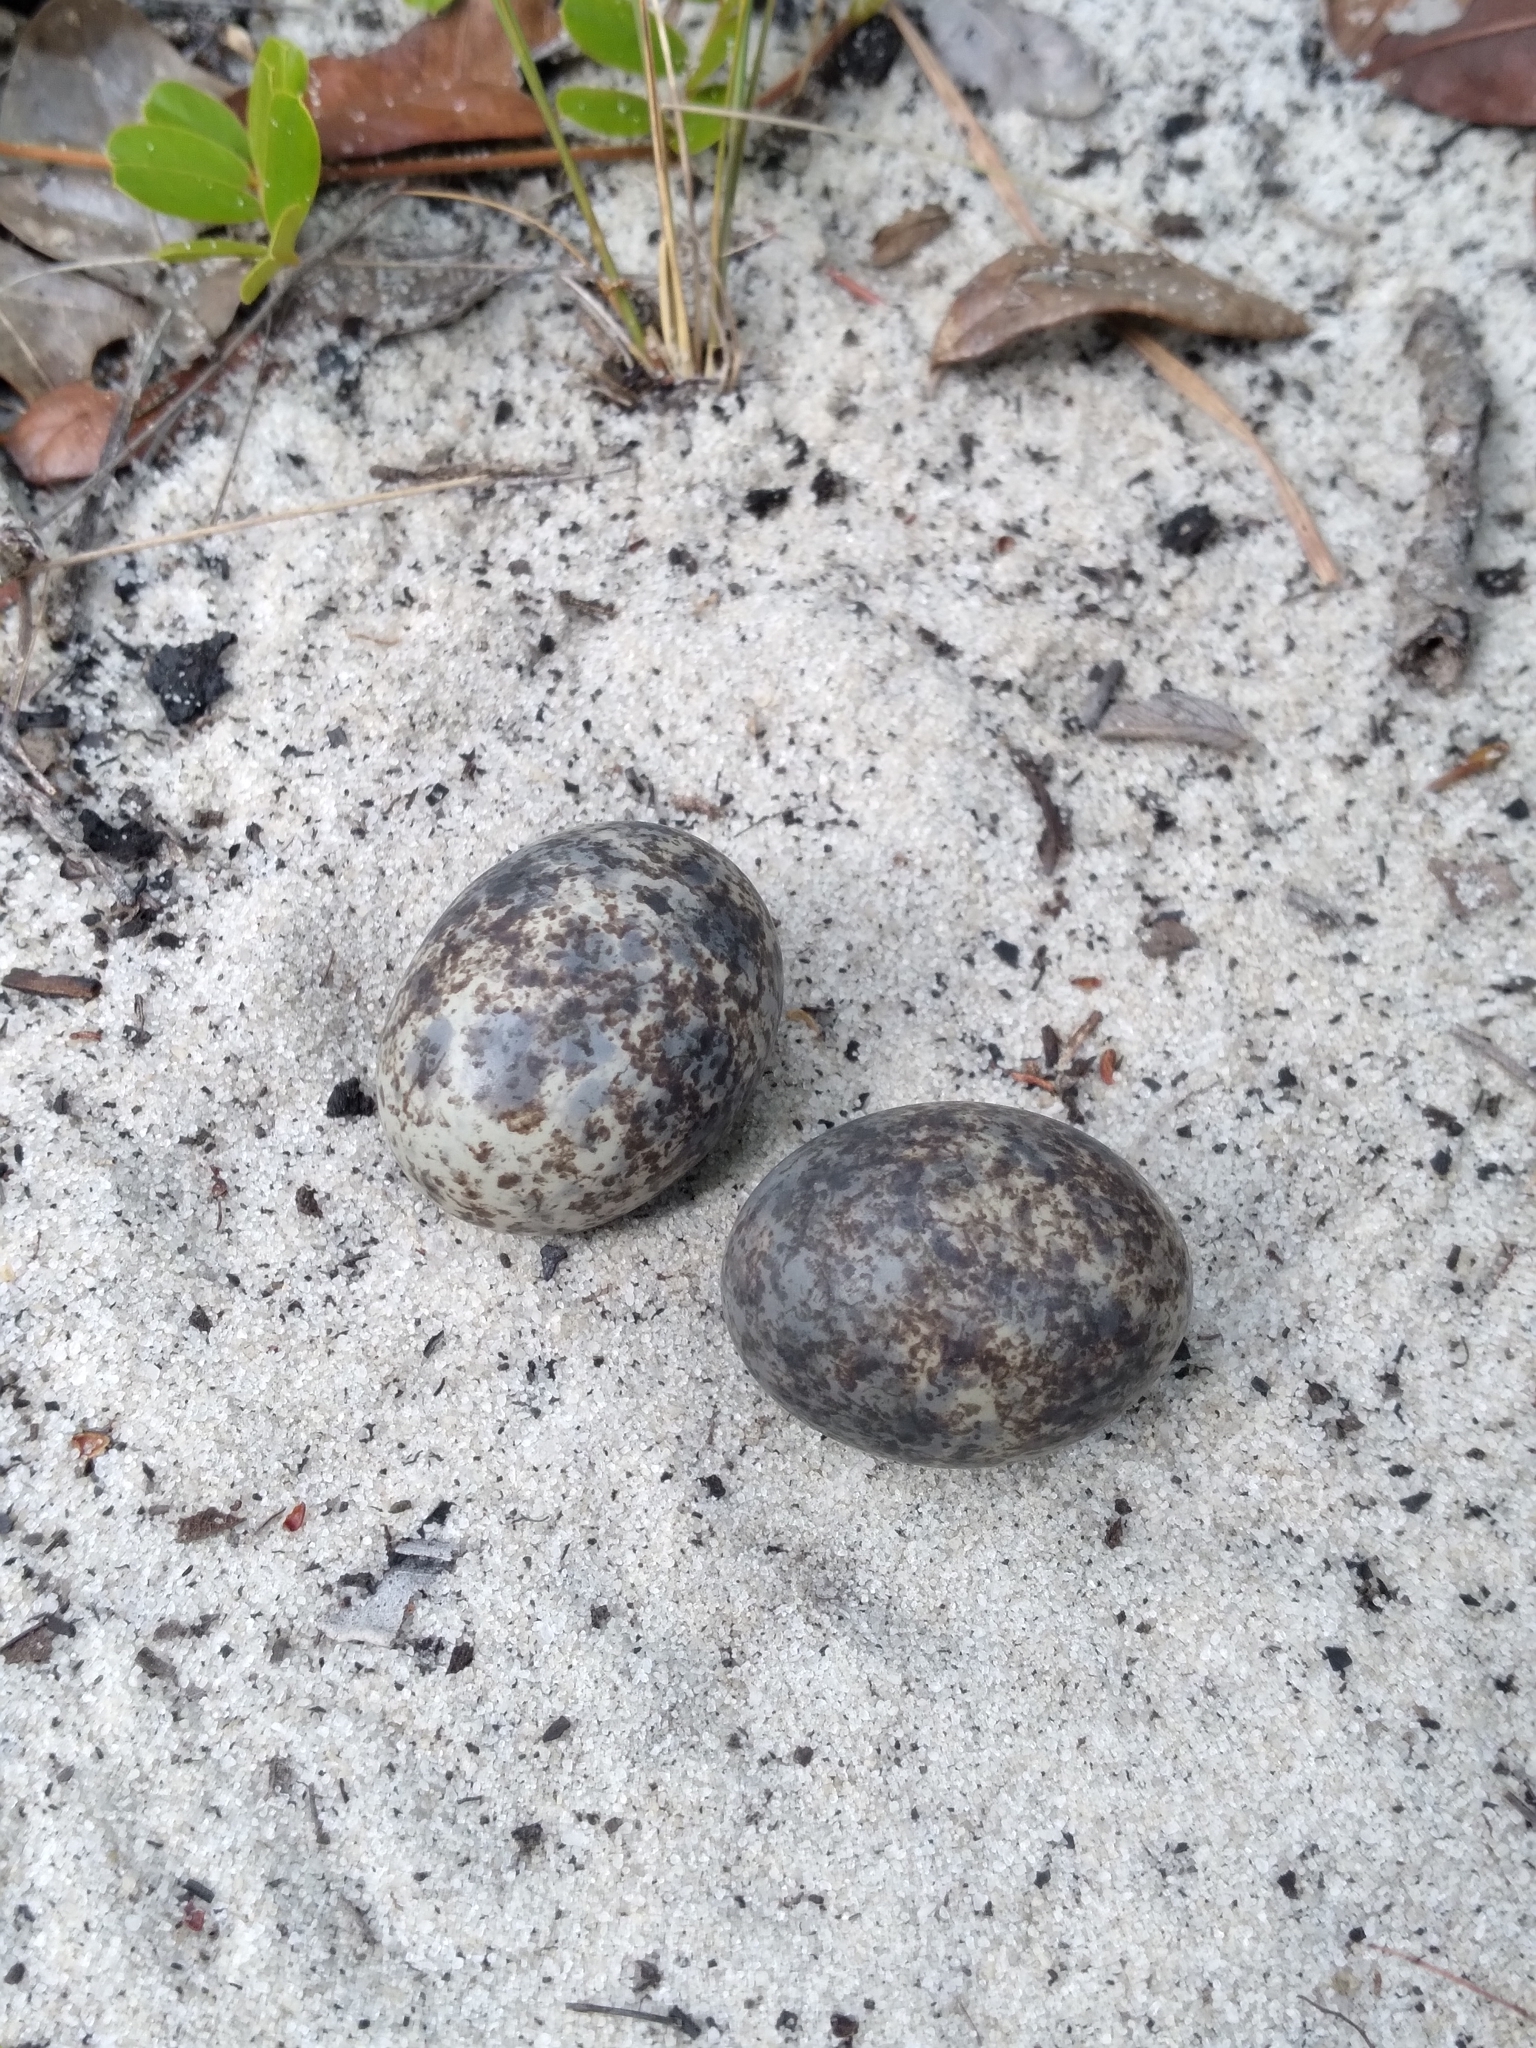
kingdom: Animalia
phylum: Chordata
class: Aves
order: Caprimulgiformes
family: Caprimulgidae
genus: Chordeiles
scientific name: Chordeiles minor
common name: Common nighthawk
